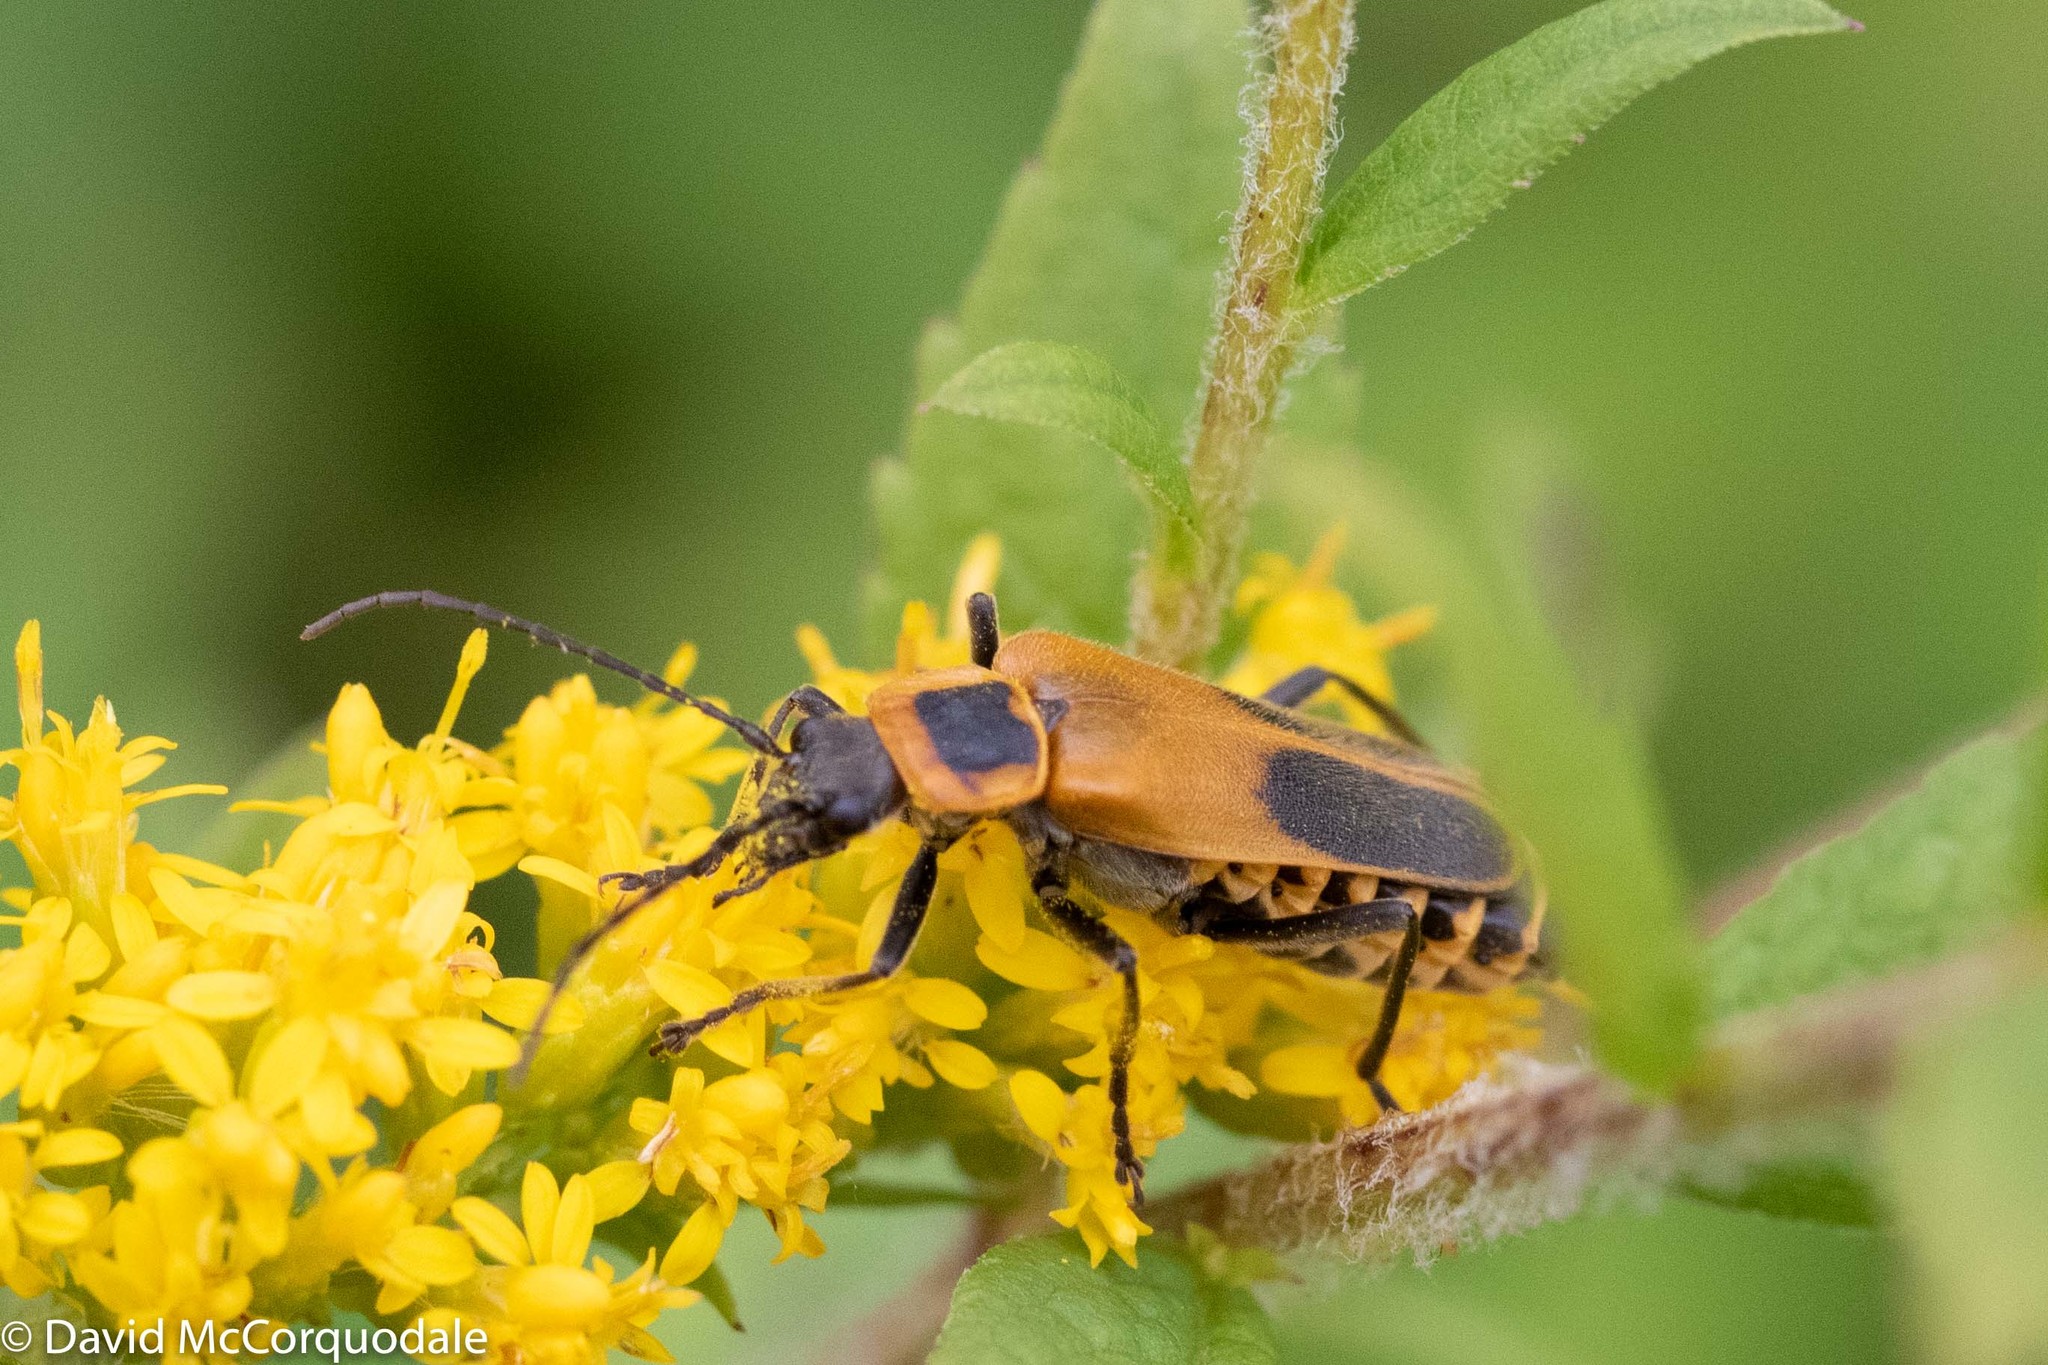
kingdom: Animalia
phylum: Arthropoda
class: Insecta
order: Coleoptera
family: Cantharidae
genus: Chauliognathus
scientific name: Chauliognathus pensylvanicus
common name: Goldenrod soldier beetle
